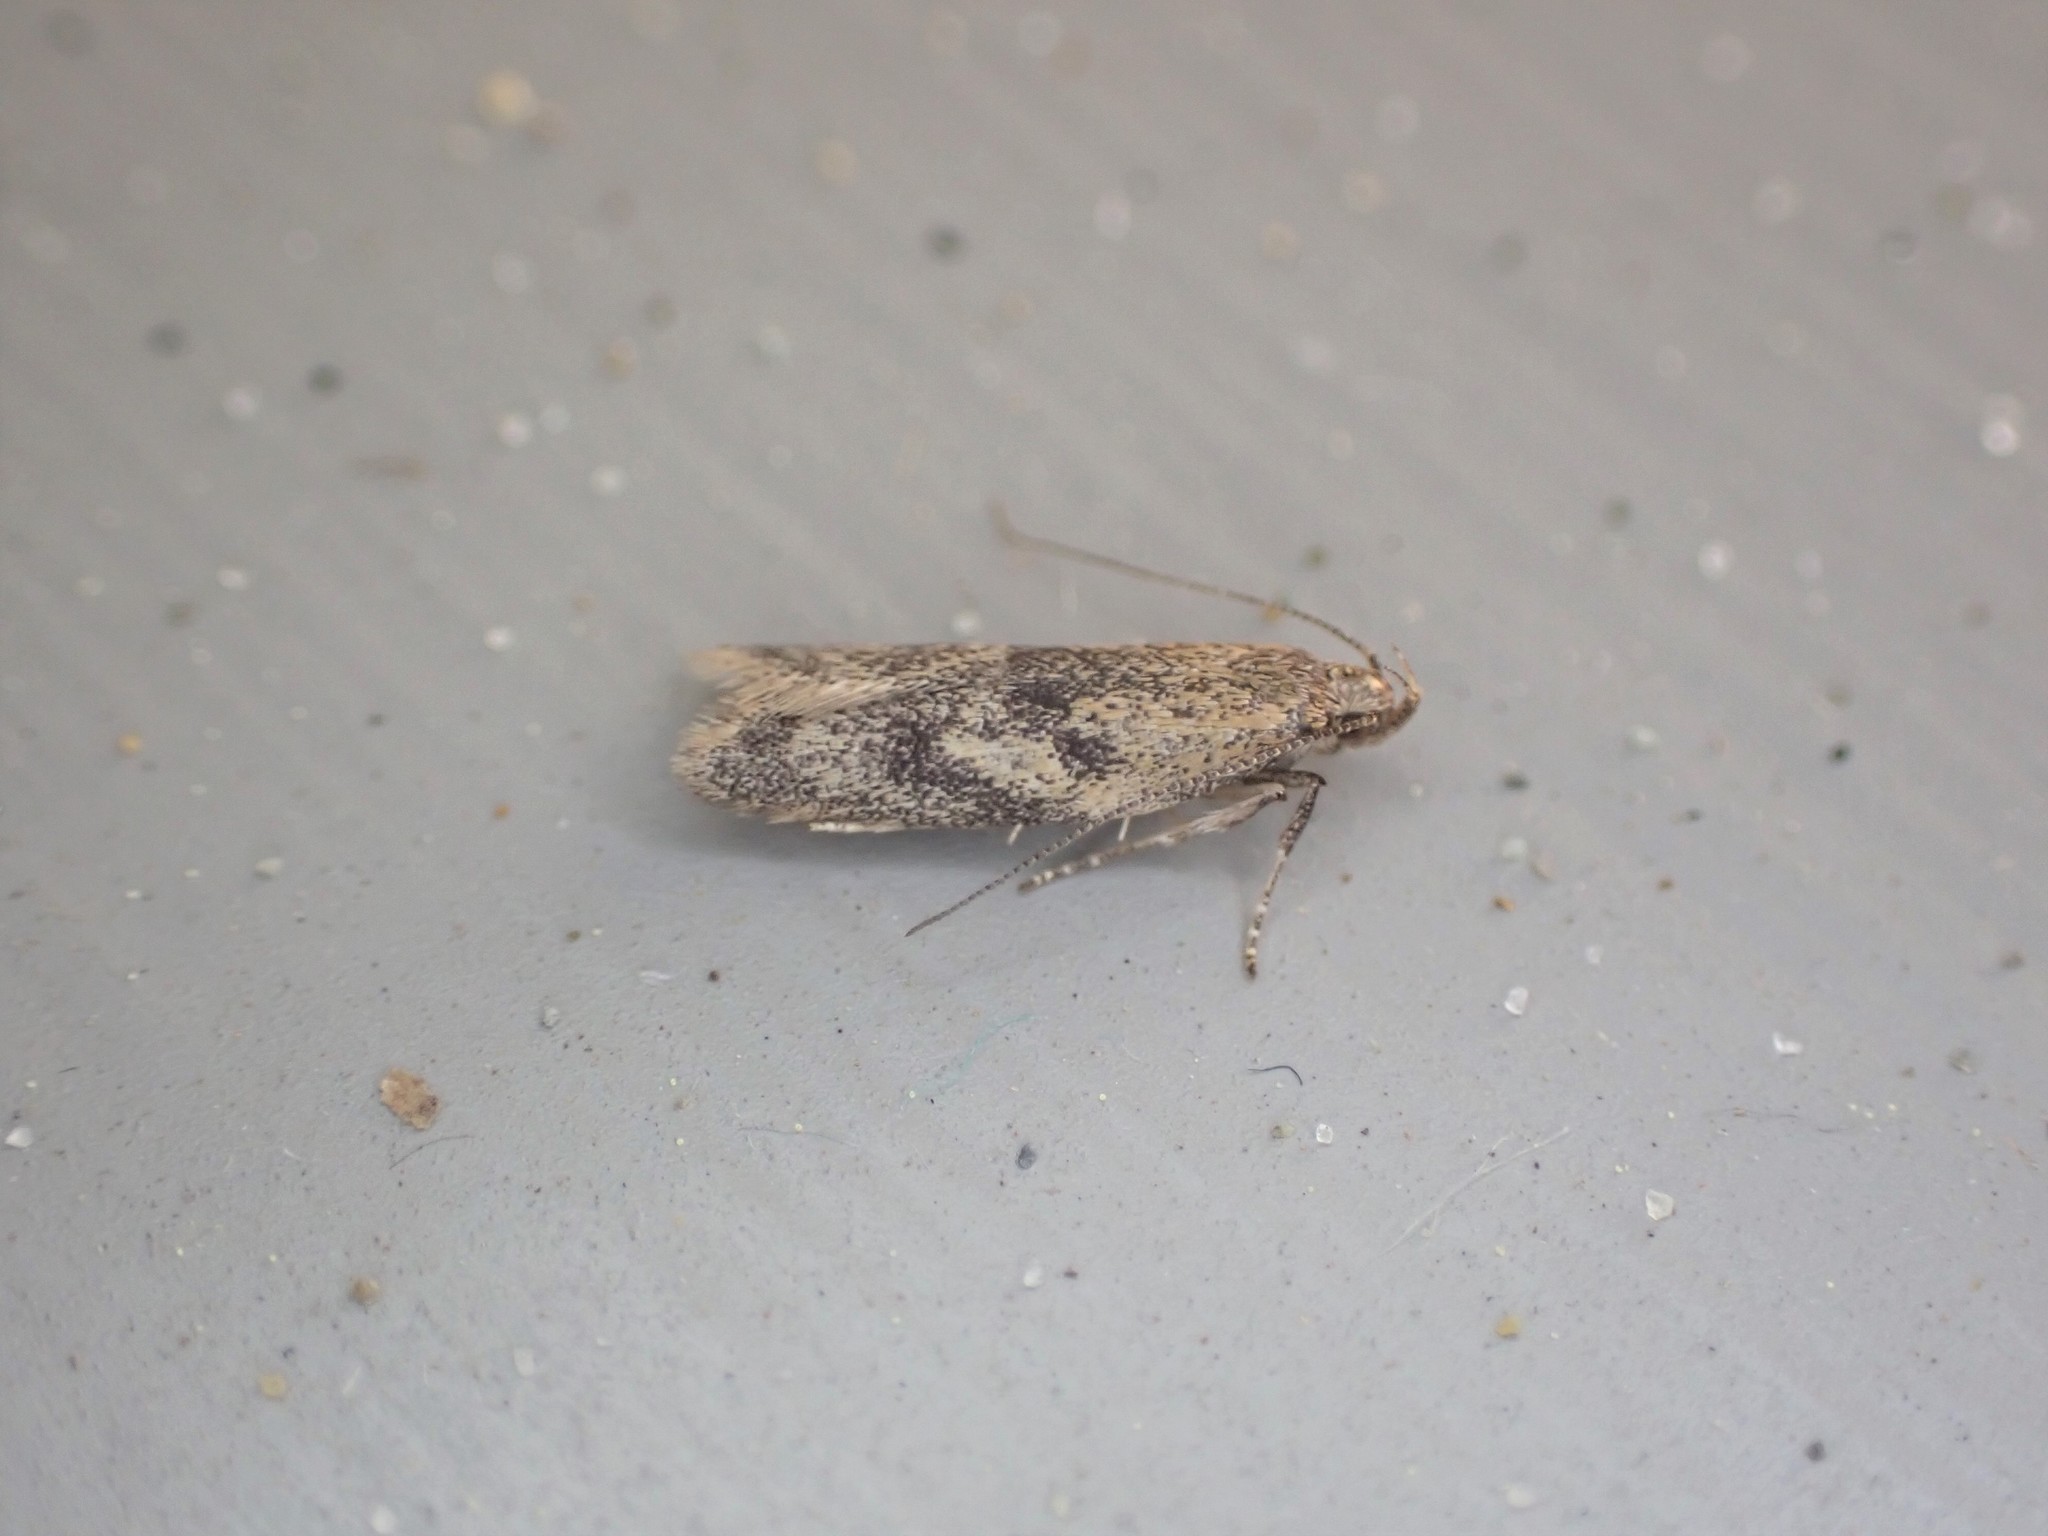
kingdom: Animalia
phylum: Arthropoda
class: Insecta
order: Lepidoptera
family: Oecophoridae
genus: Gymnobathra
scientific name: Gymnobathra tholodella
